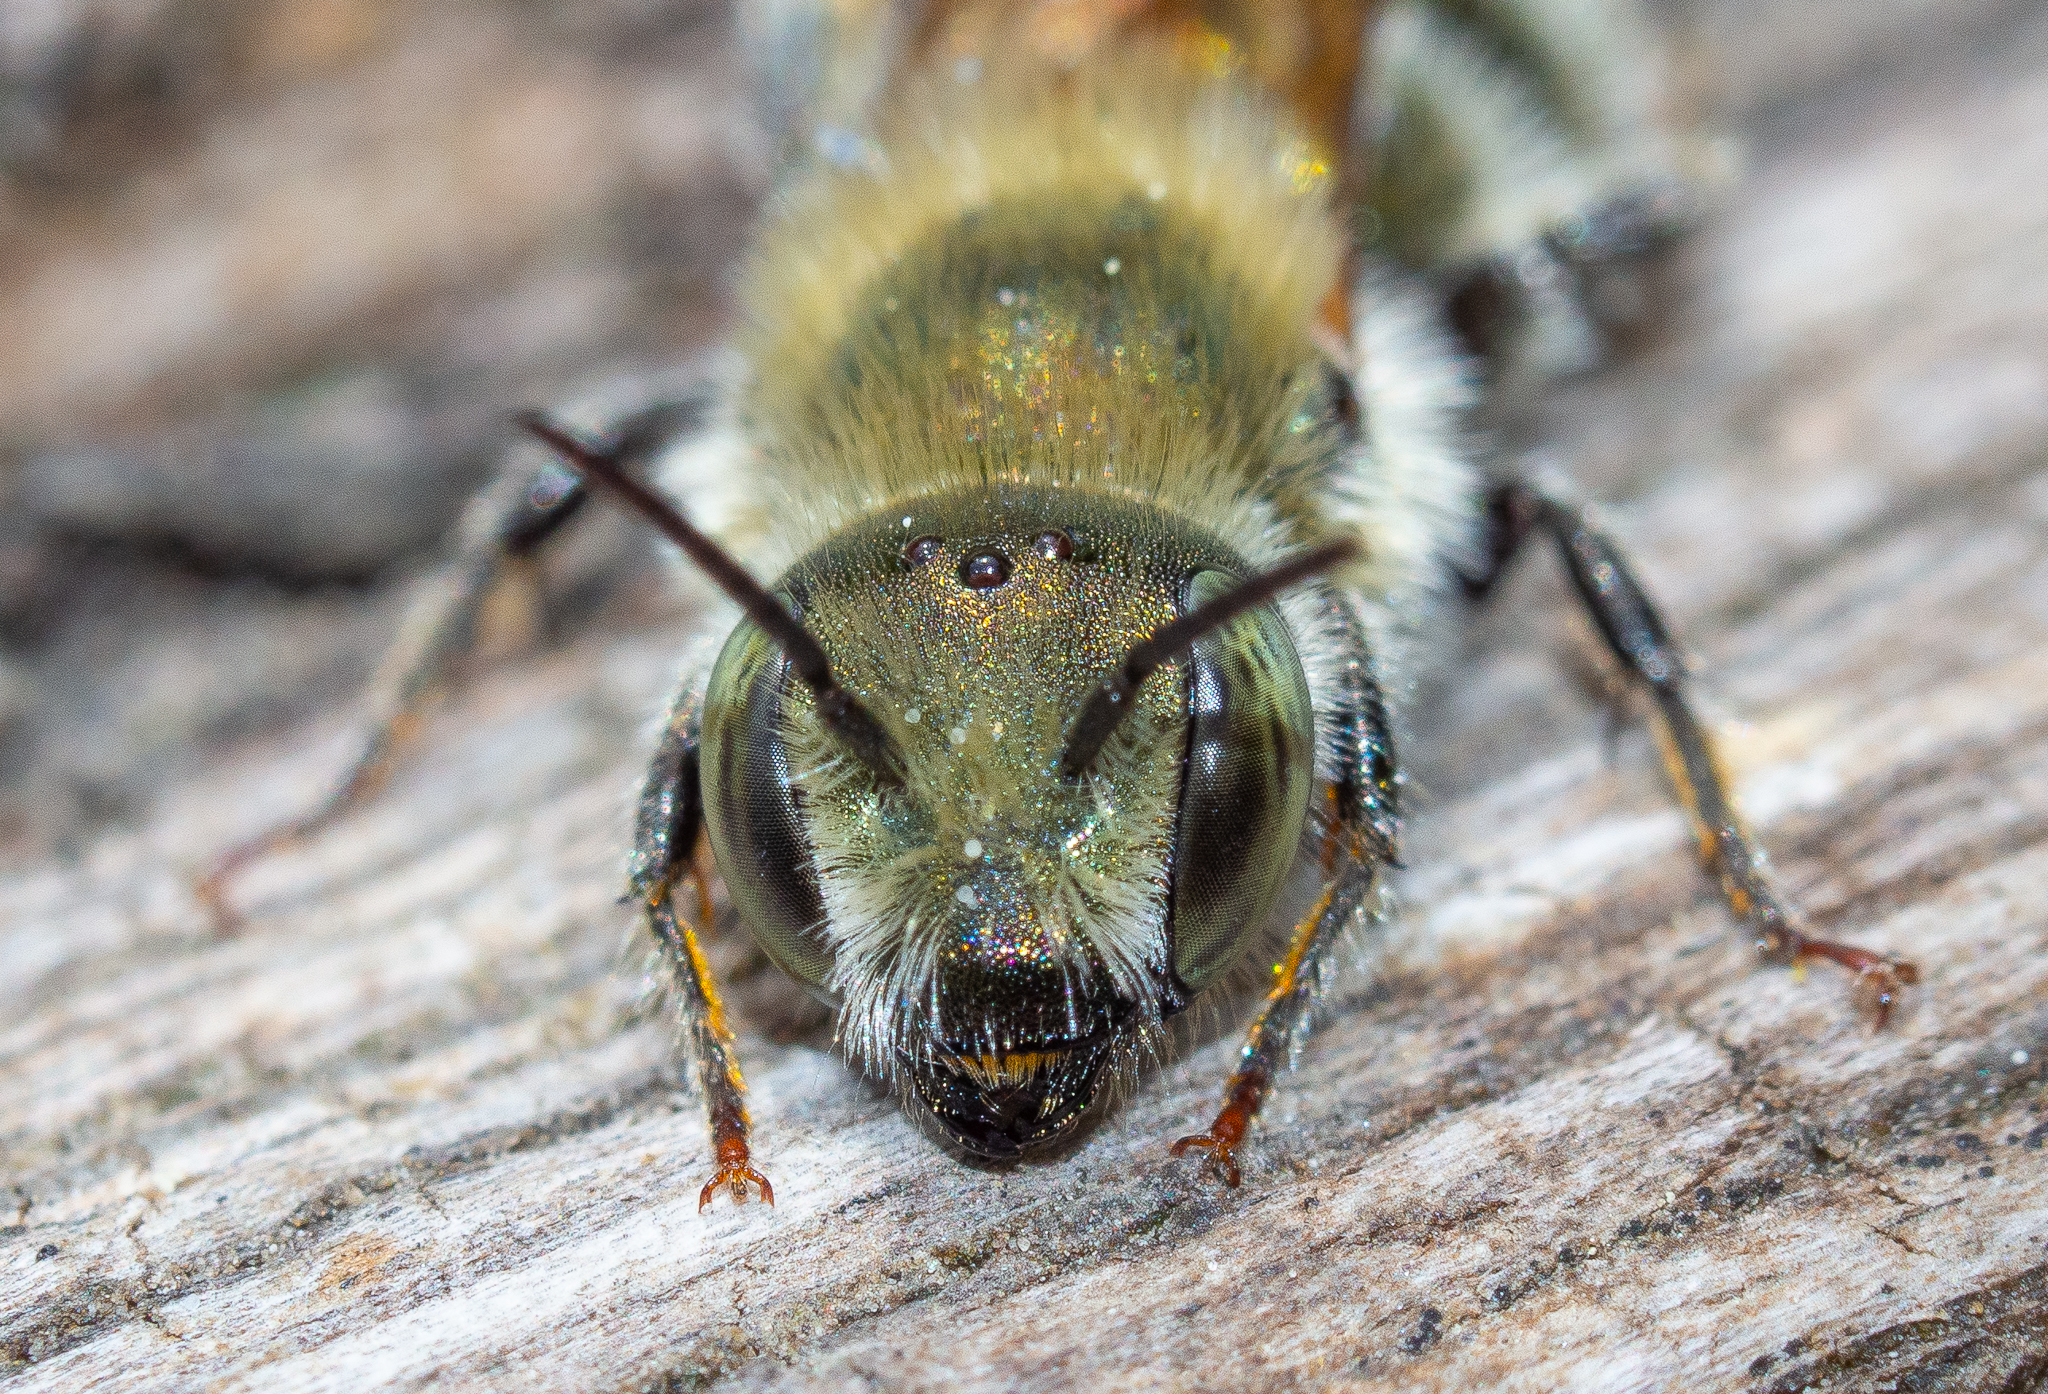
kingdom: Animalia
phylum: Arthropoda
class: Insecta
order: Hymenoptera
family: Megachilidae
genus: Osmia
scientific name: Osmia caerulescens
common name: Blue mason bee
